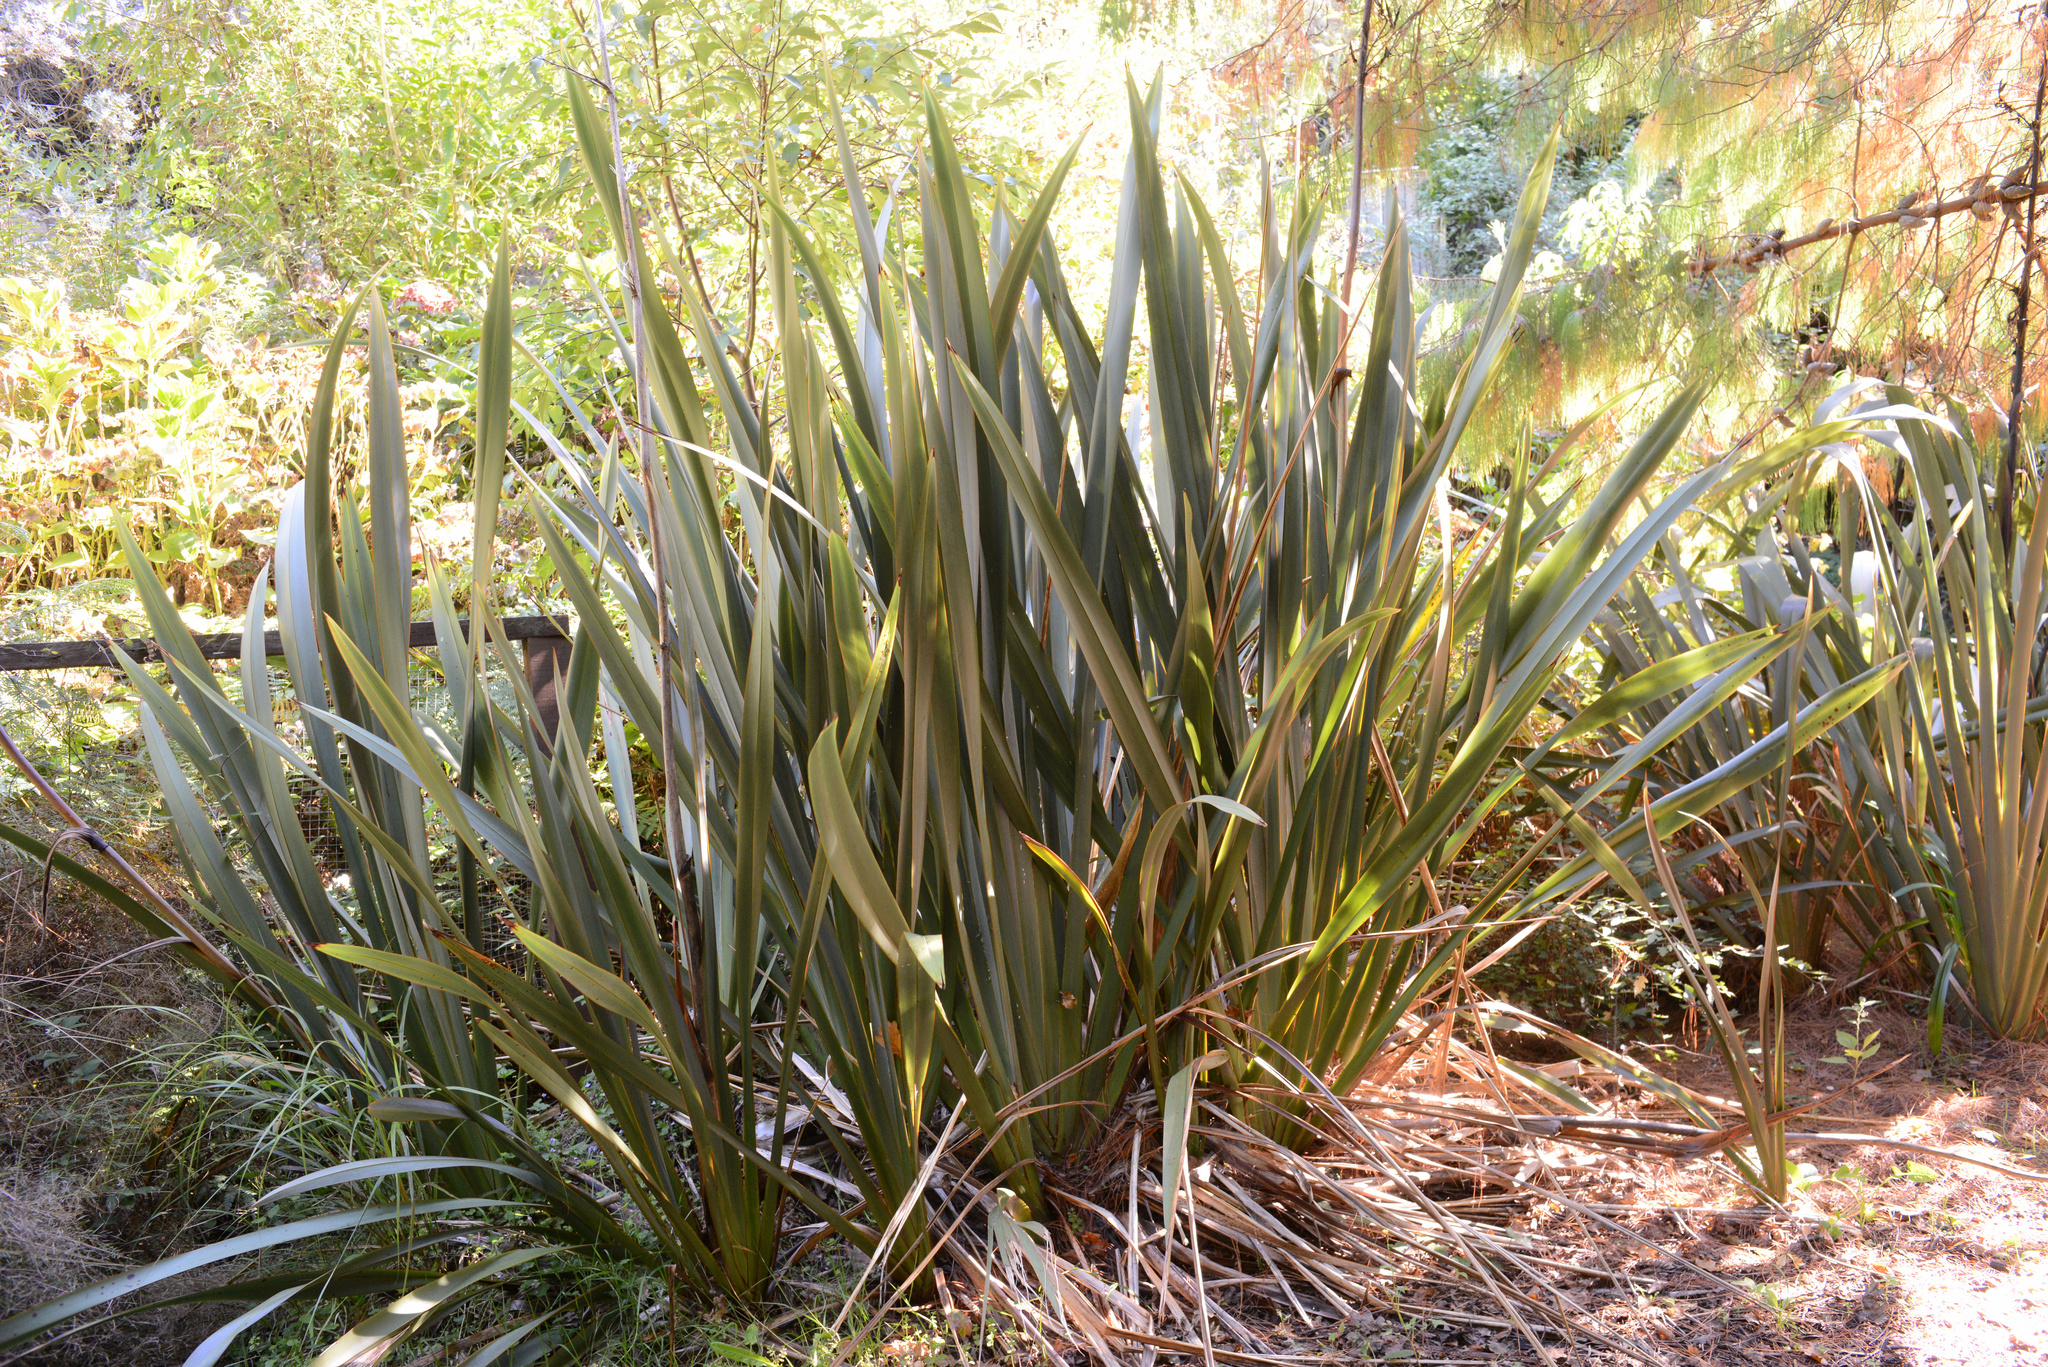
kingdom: Plantae
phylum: Tracheophyta
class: Liliopsida
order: Asparagales
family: Asphodelaceae
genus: Phormium
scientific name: Phormium tenax
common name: New zealand flax
